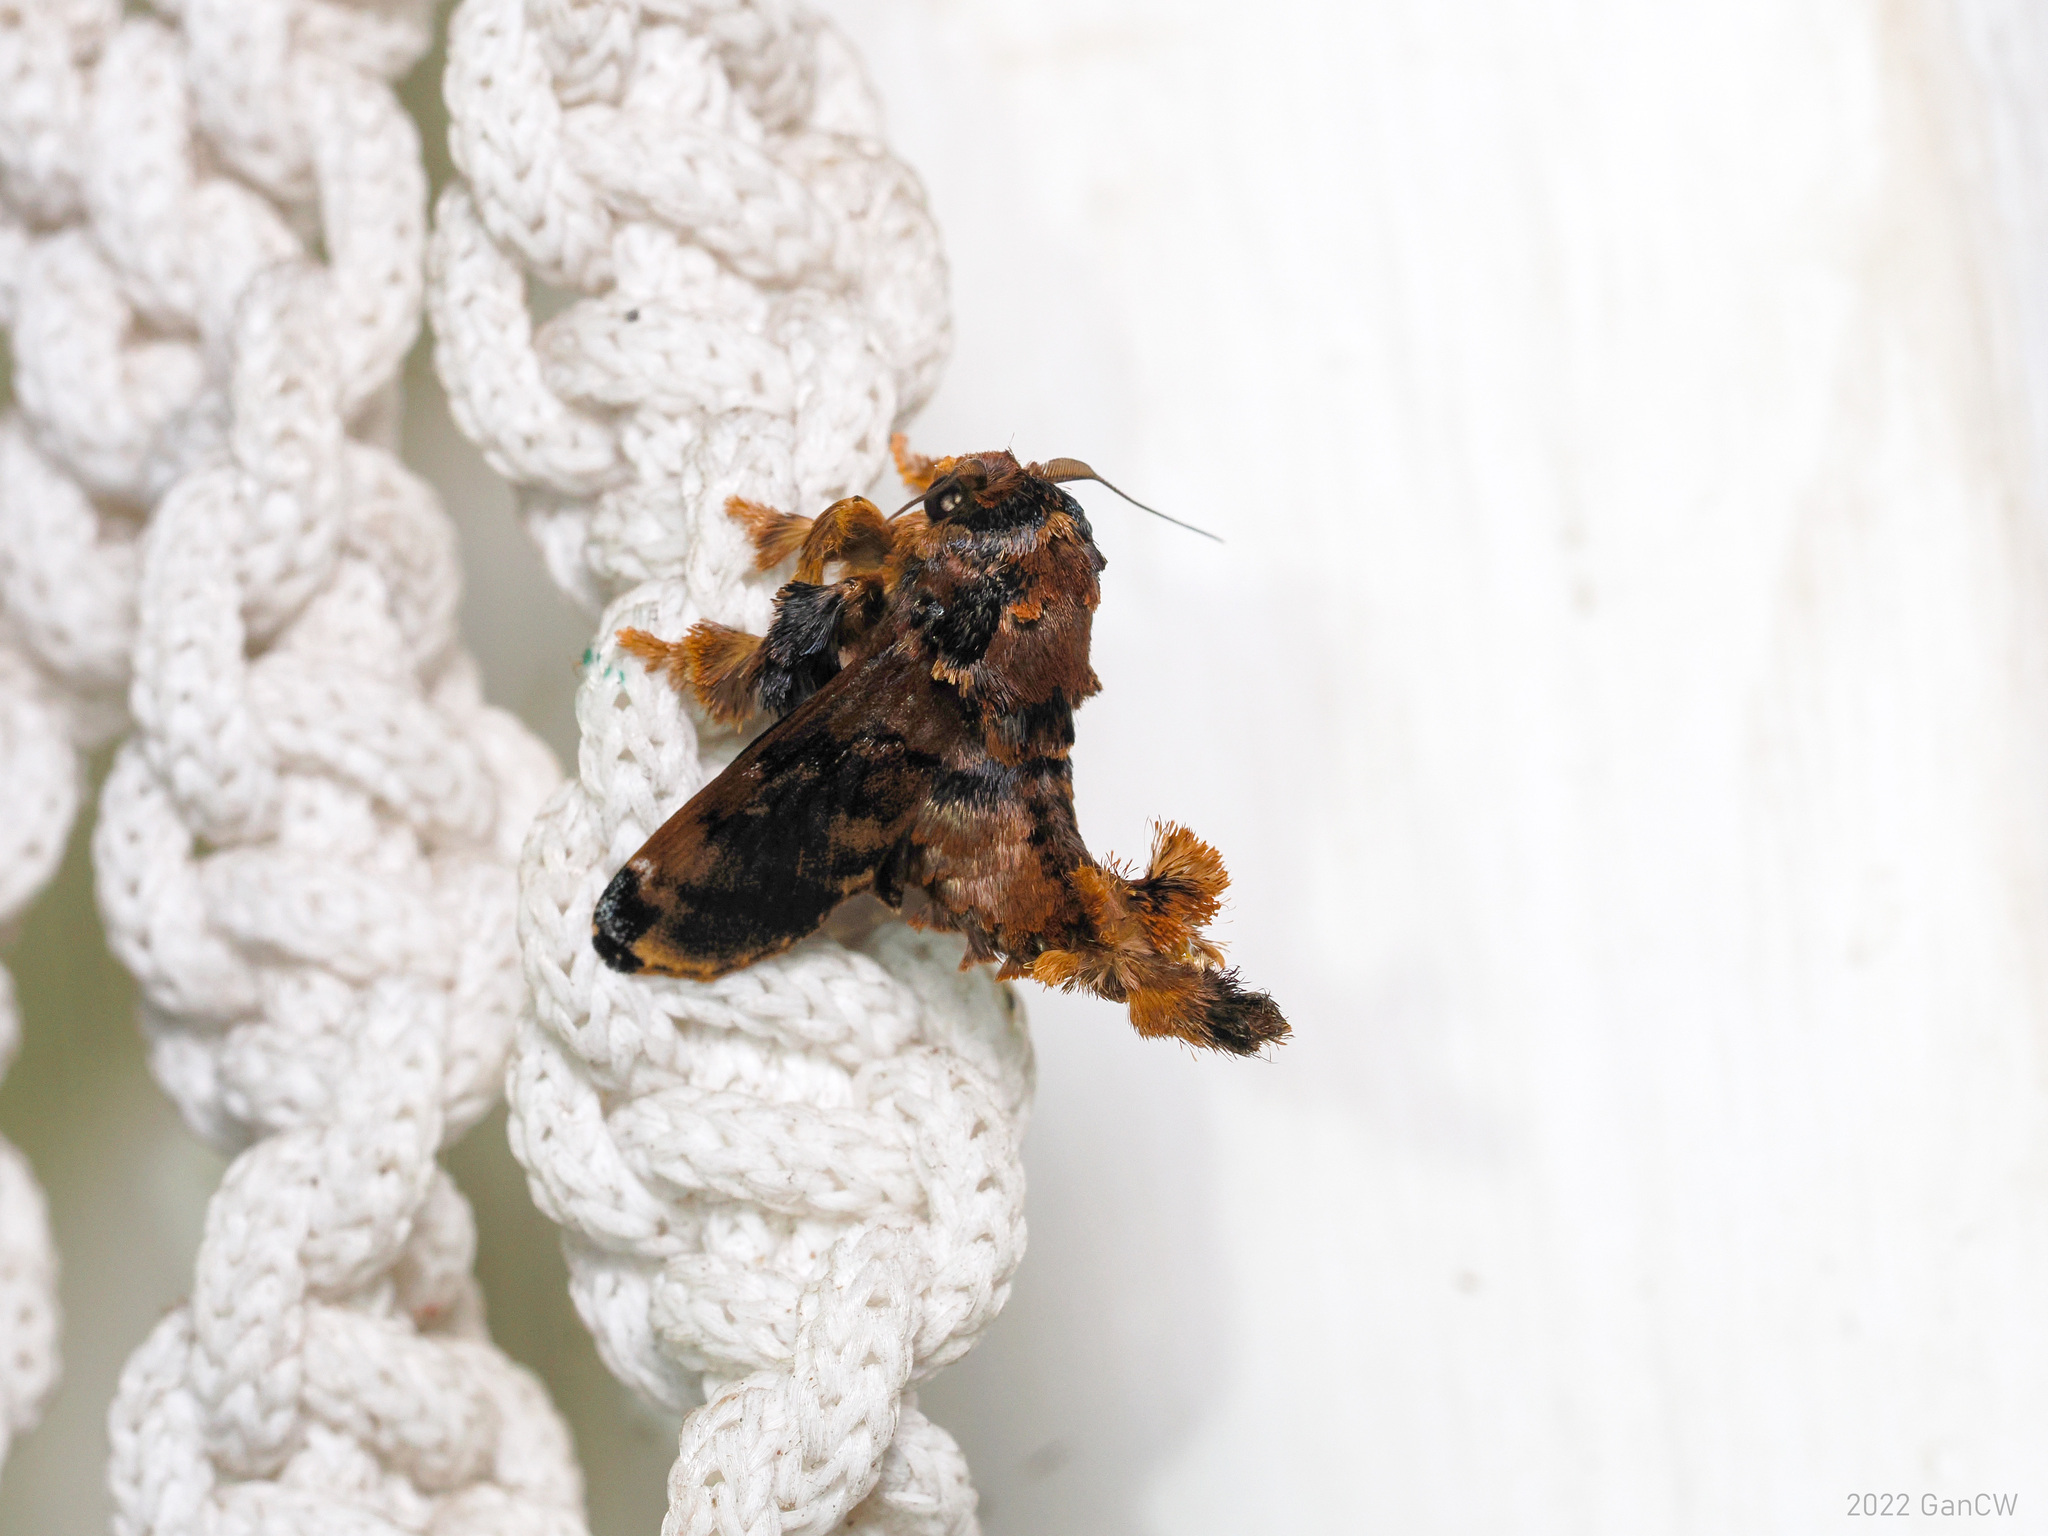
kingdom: Animalia
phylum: Arthropoda
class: Insecta
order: Lepidoptera
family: Limacodidae
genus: Cheromettia
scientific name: Cheromettia sumatrensis
